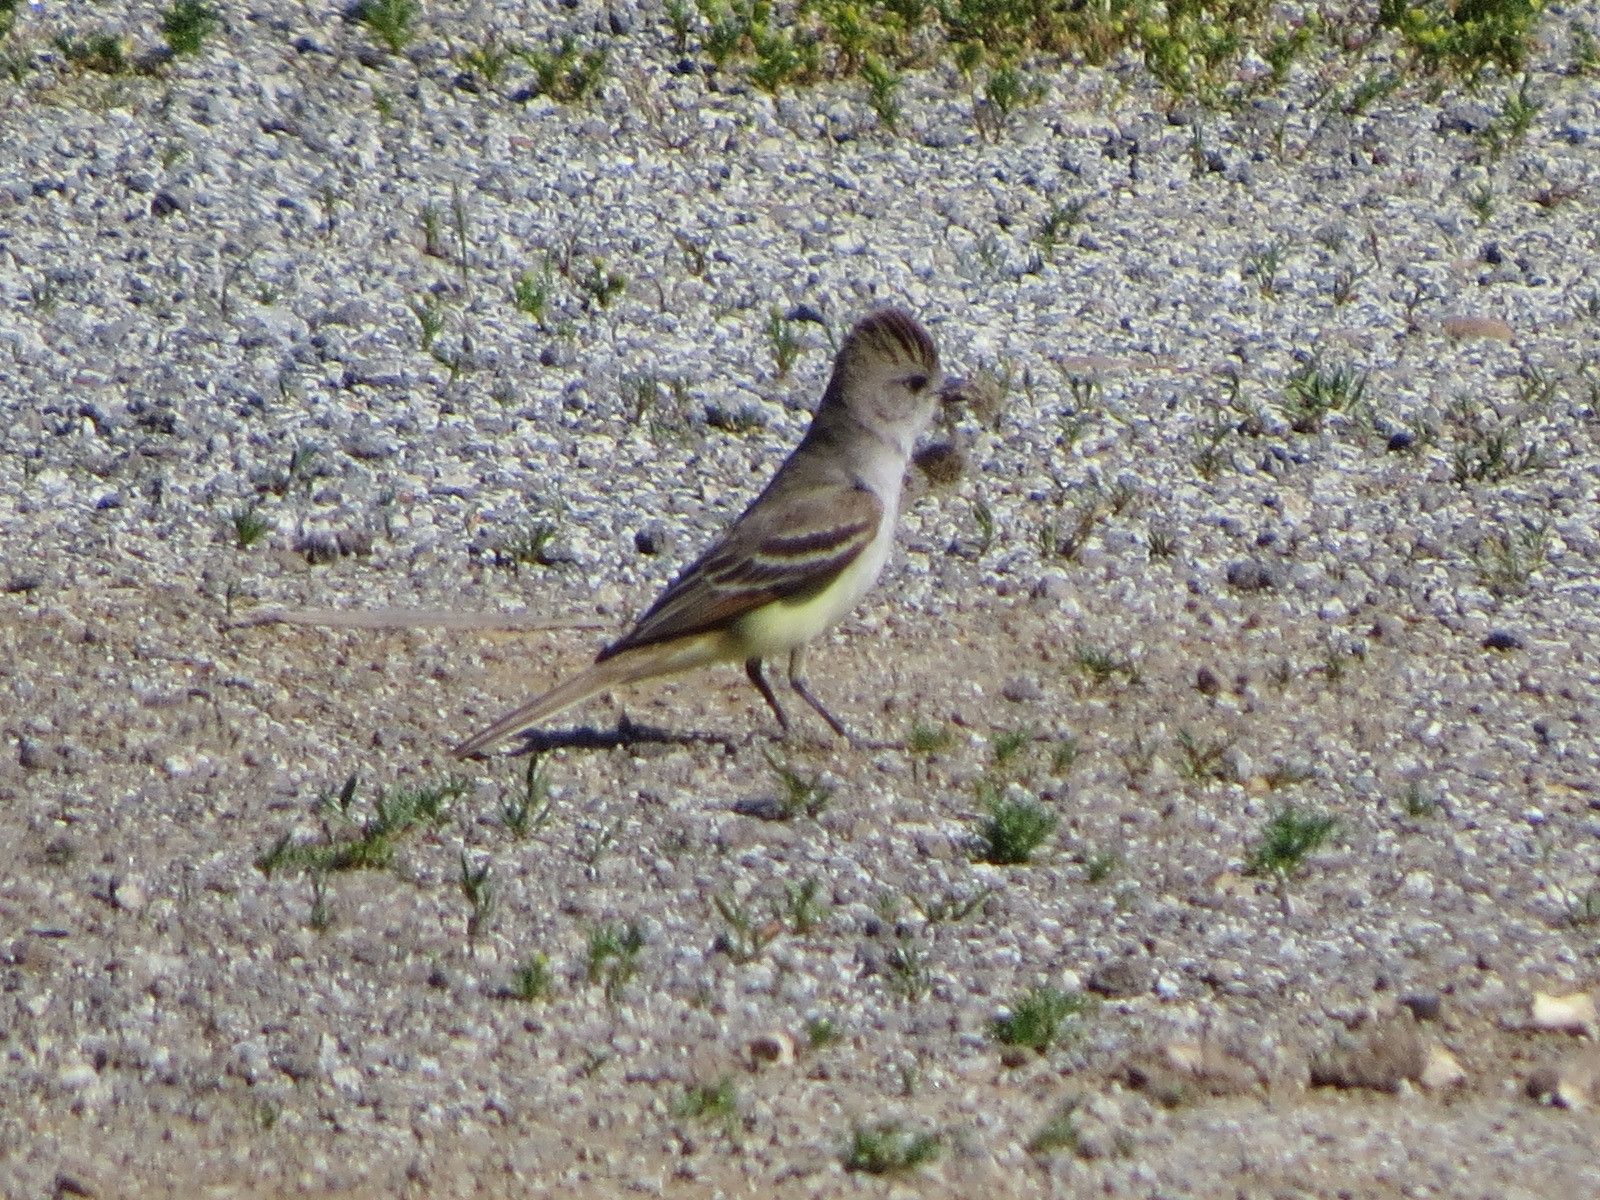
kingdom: Animalia
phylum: Chordata
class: Aves
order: Passeriformes
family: Tyrannidae
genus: Myiarchus
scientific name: Myiarchus cinerascens
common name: Ash-throated flycatcher
